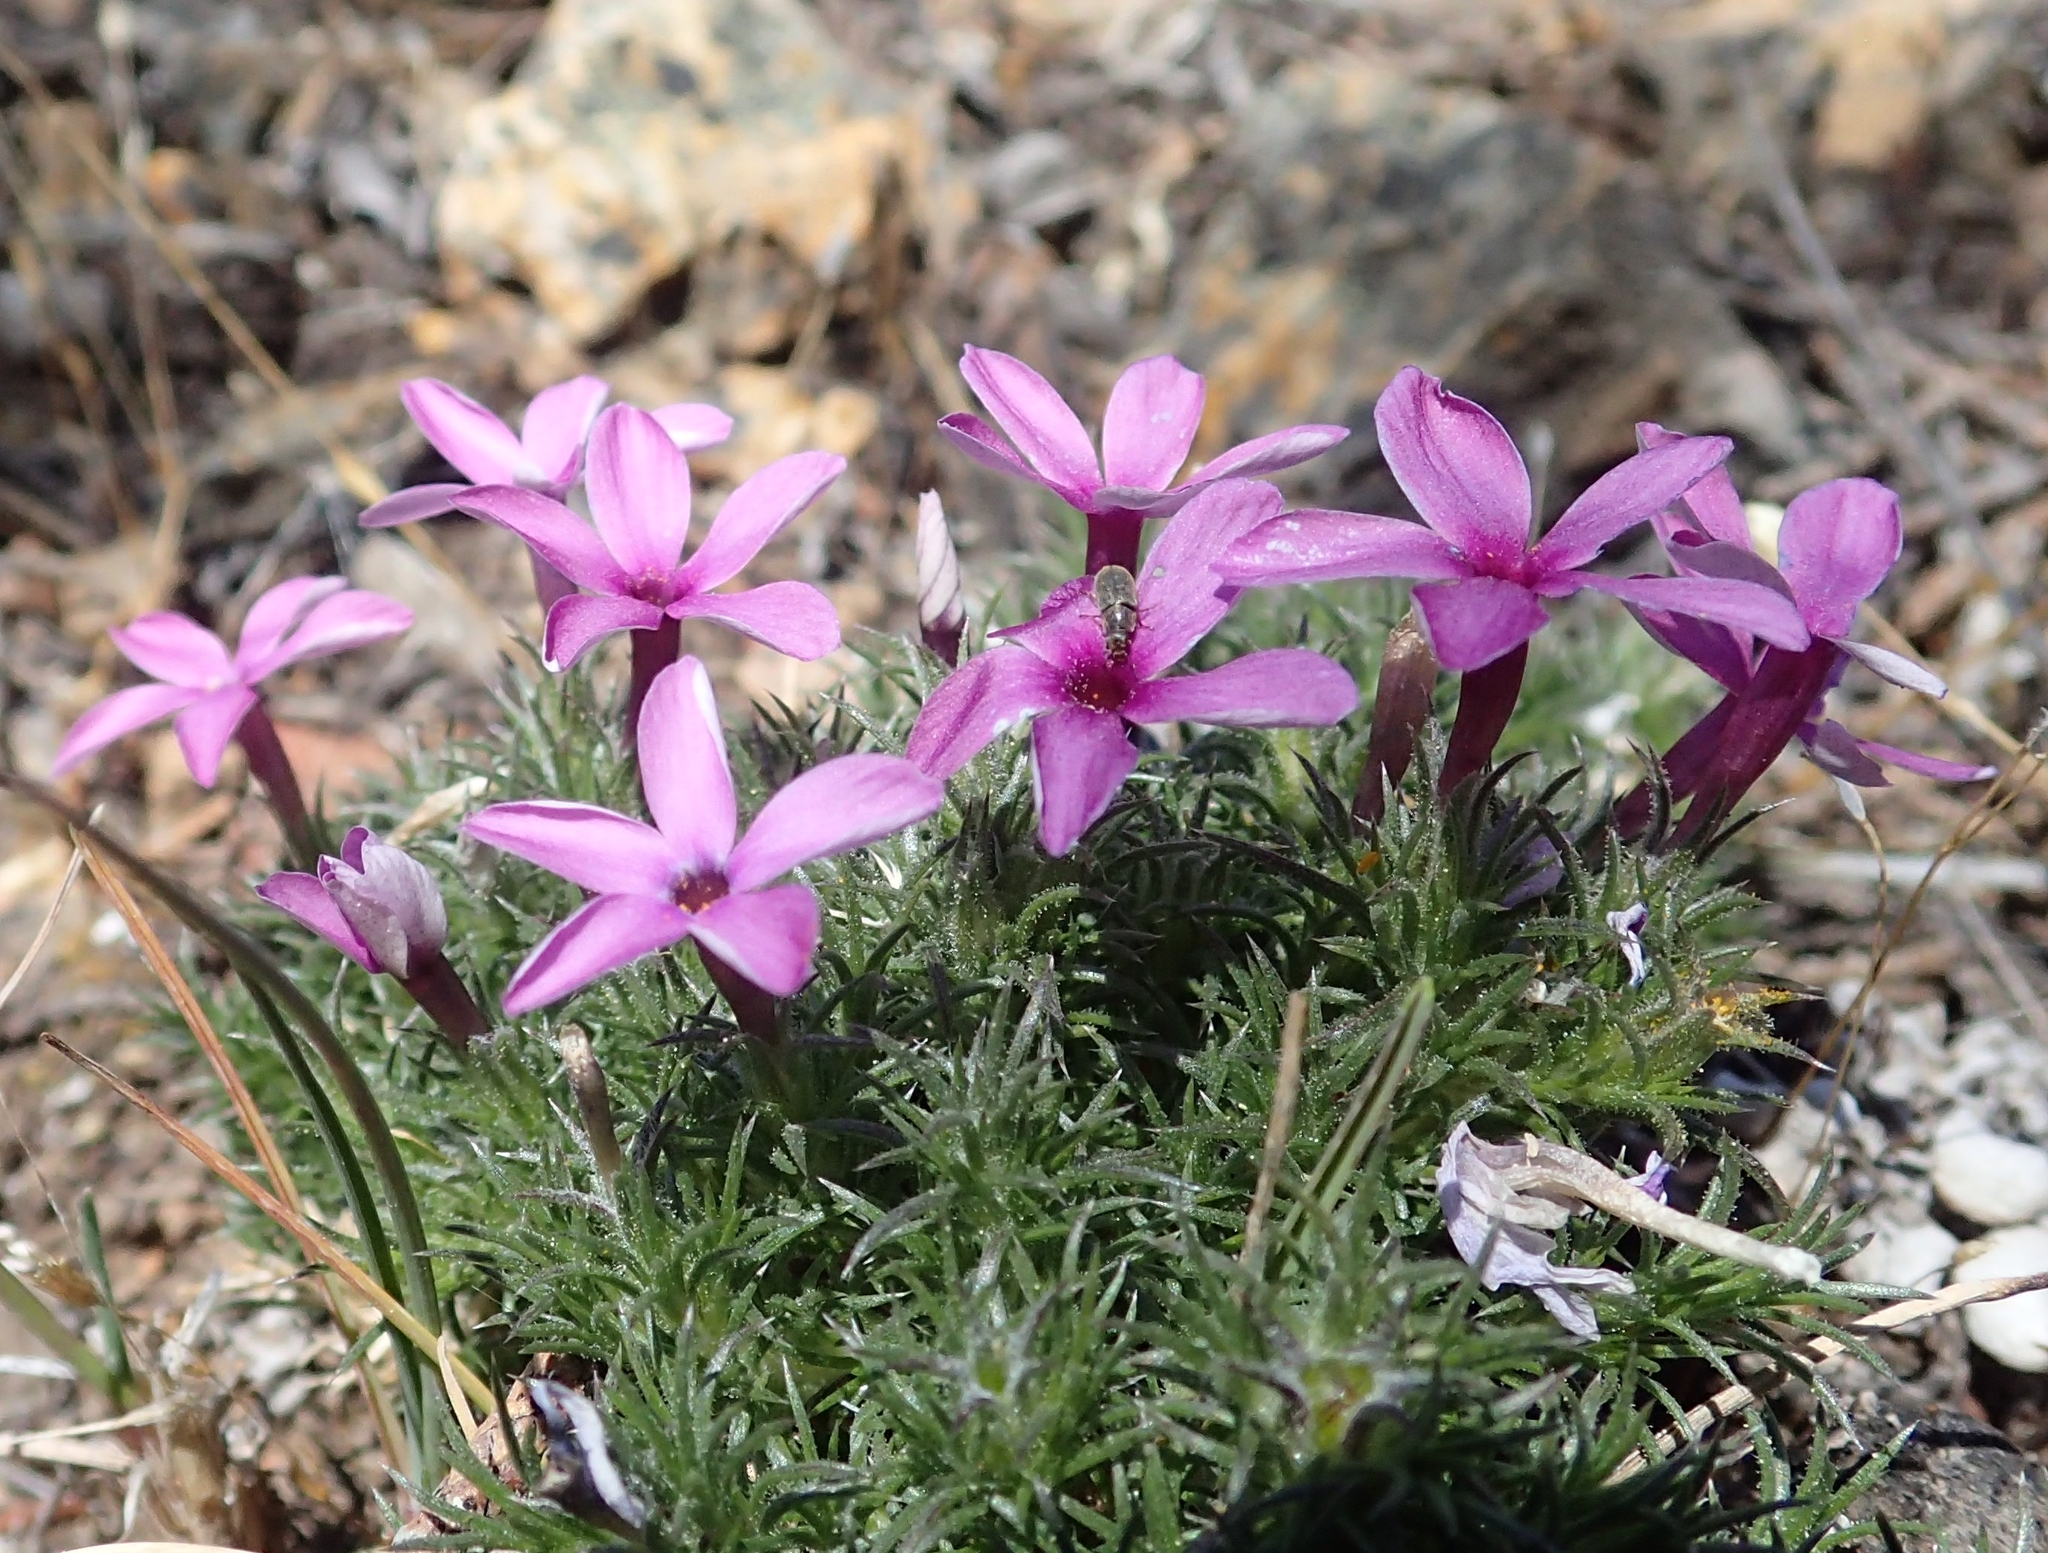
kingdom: Plantae
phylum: Tracheophyta
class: Magnoliopsida
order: Ericales
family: Polemoniaceae
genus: Phlox
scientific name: Phlox douglasii
